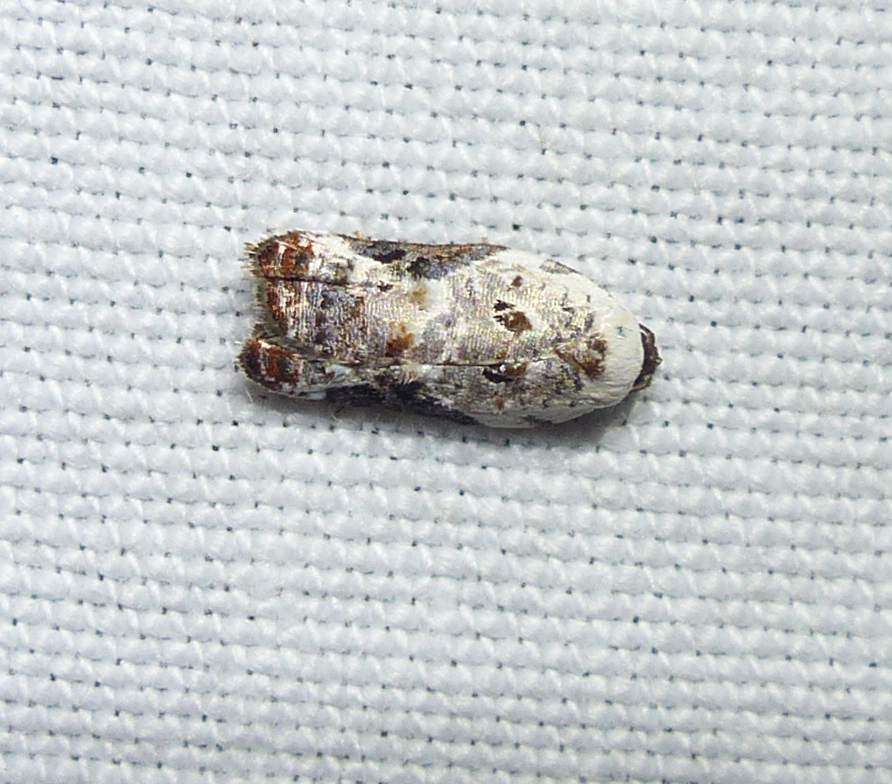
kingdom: Animalia
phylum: Arthropoda
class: Insecta
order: Lepidoptera
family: Tortricidae
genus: Acleris
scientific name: Acleris nivisellana
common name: Snowy-shouldered acleris moth
